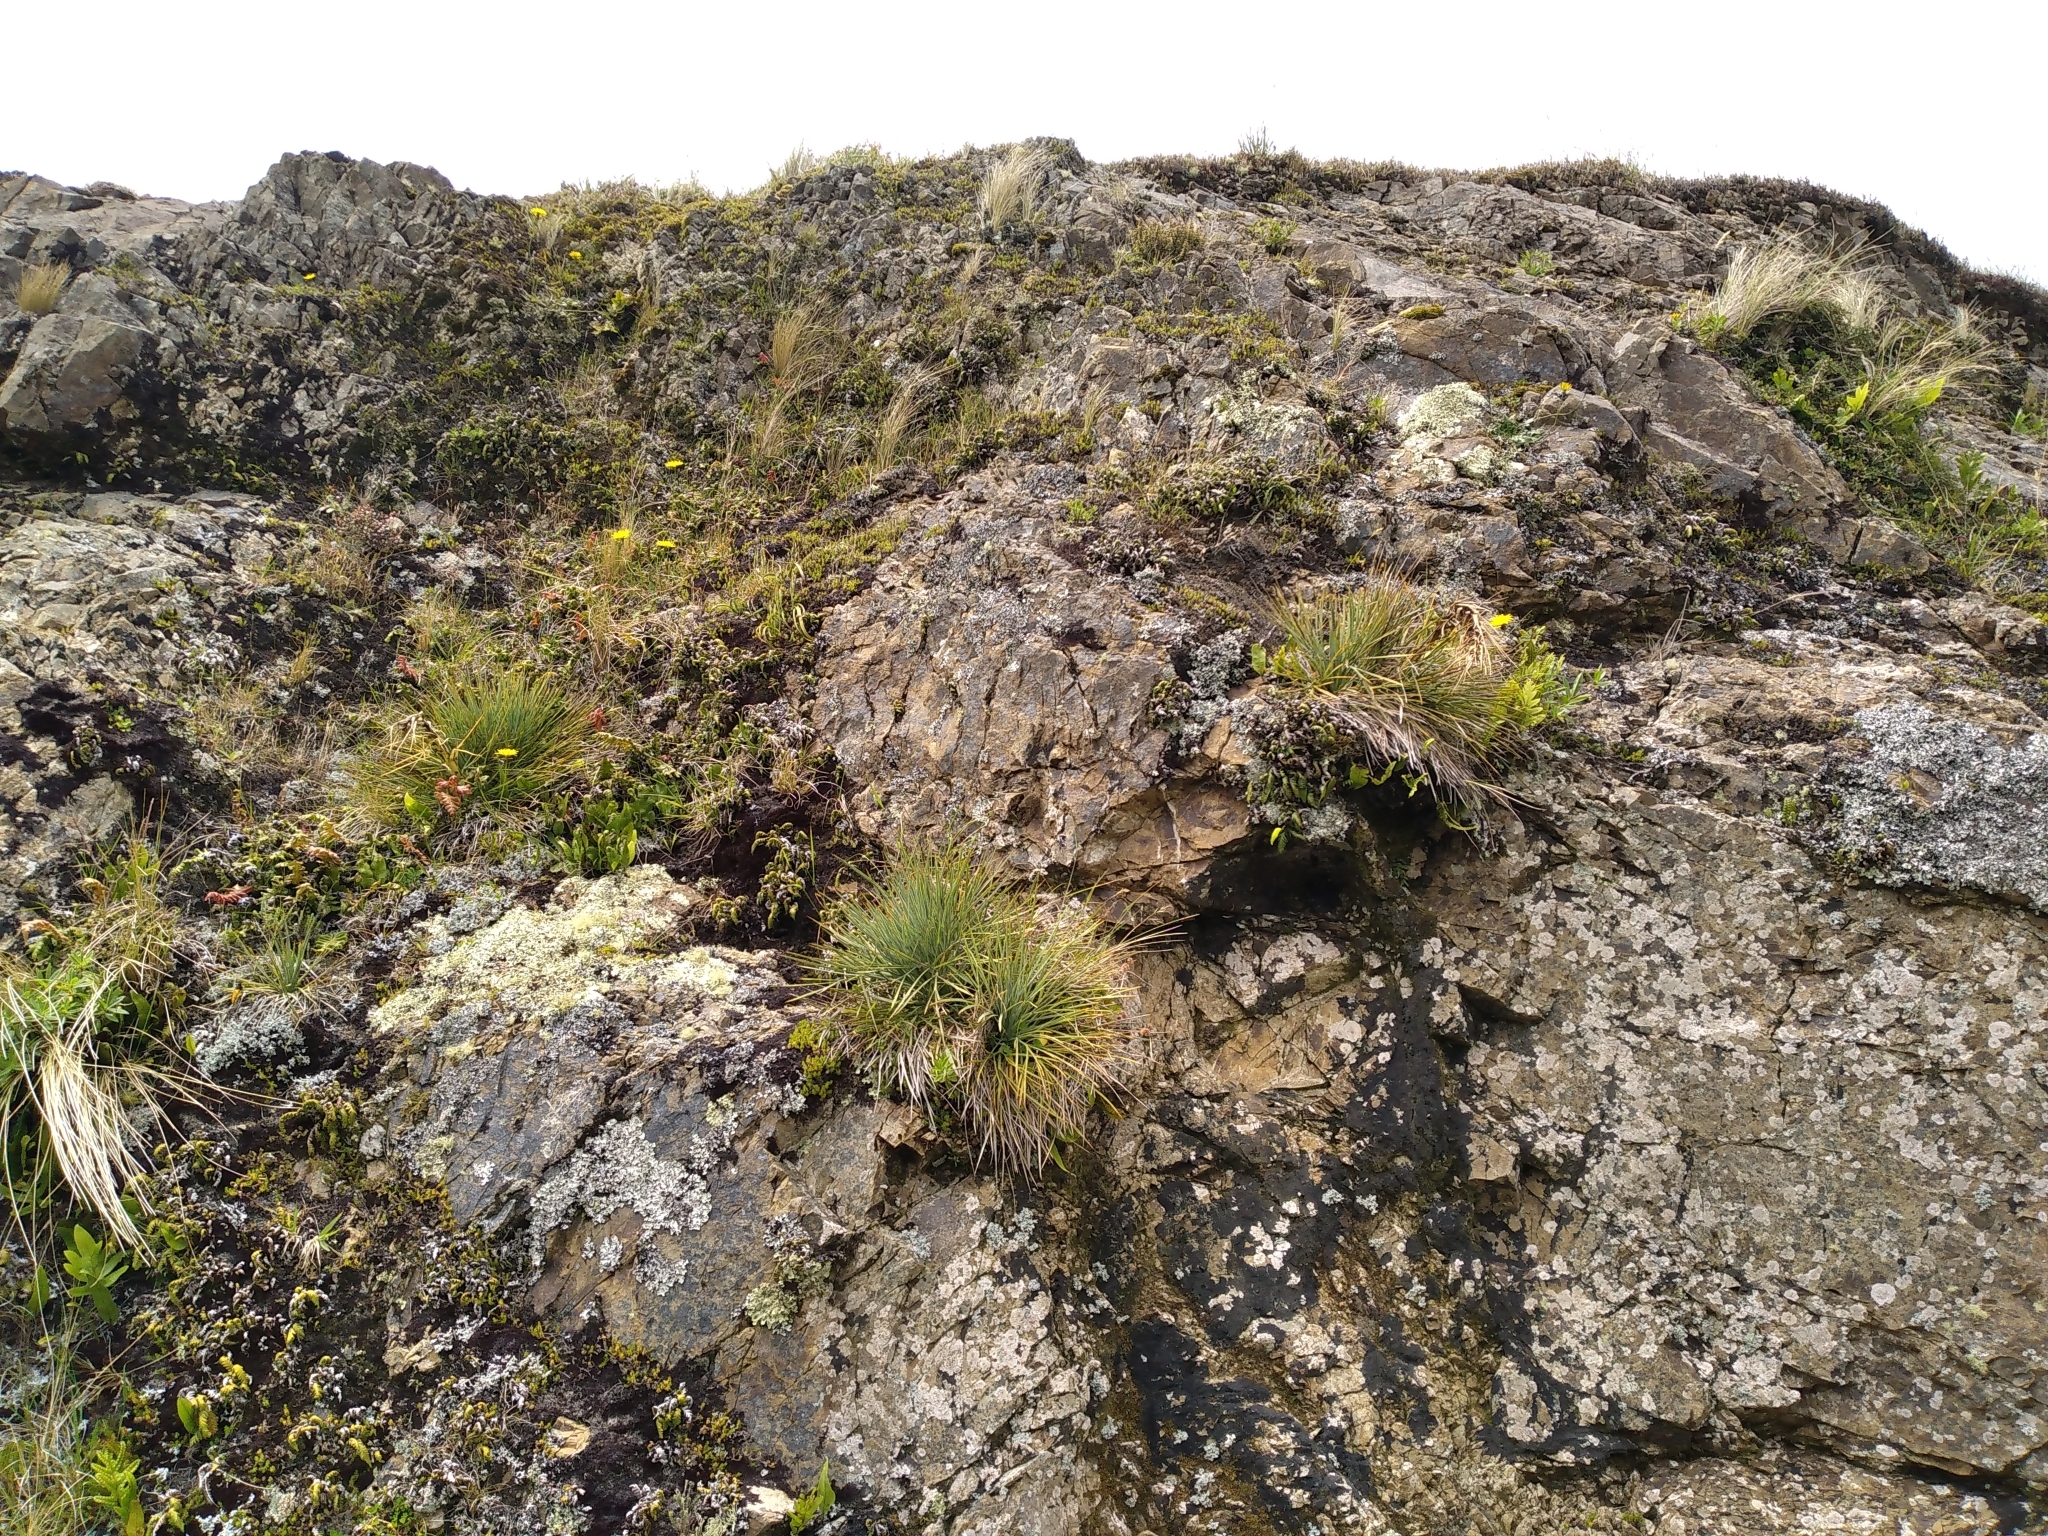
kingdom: Plantae
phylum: Tracheophyta
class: Magnoliopsida
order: Apiales
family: Apiaceae
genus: Aciphylla
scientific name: Aciphylla squarrosa
